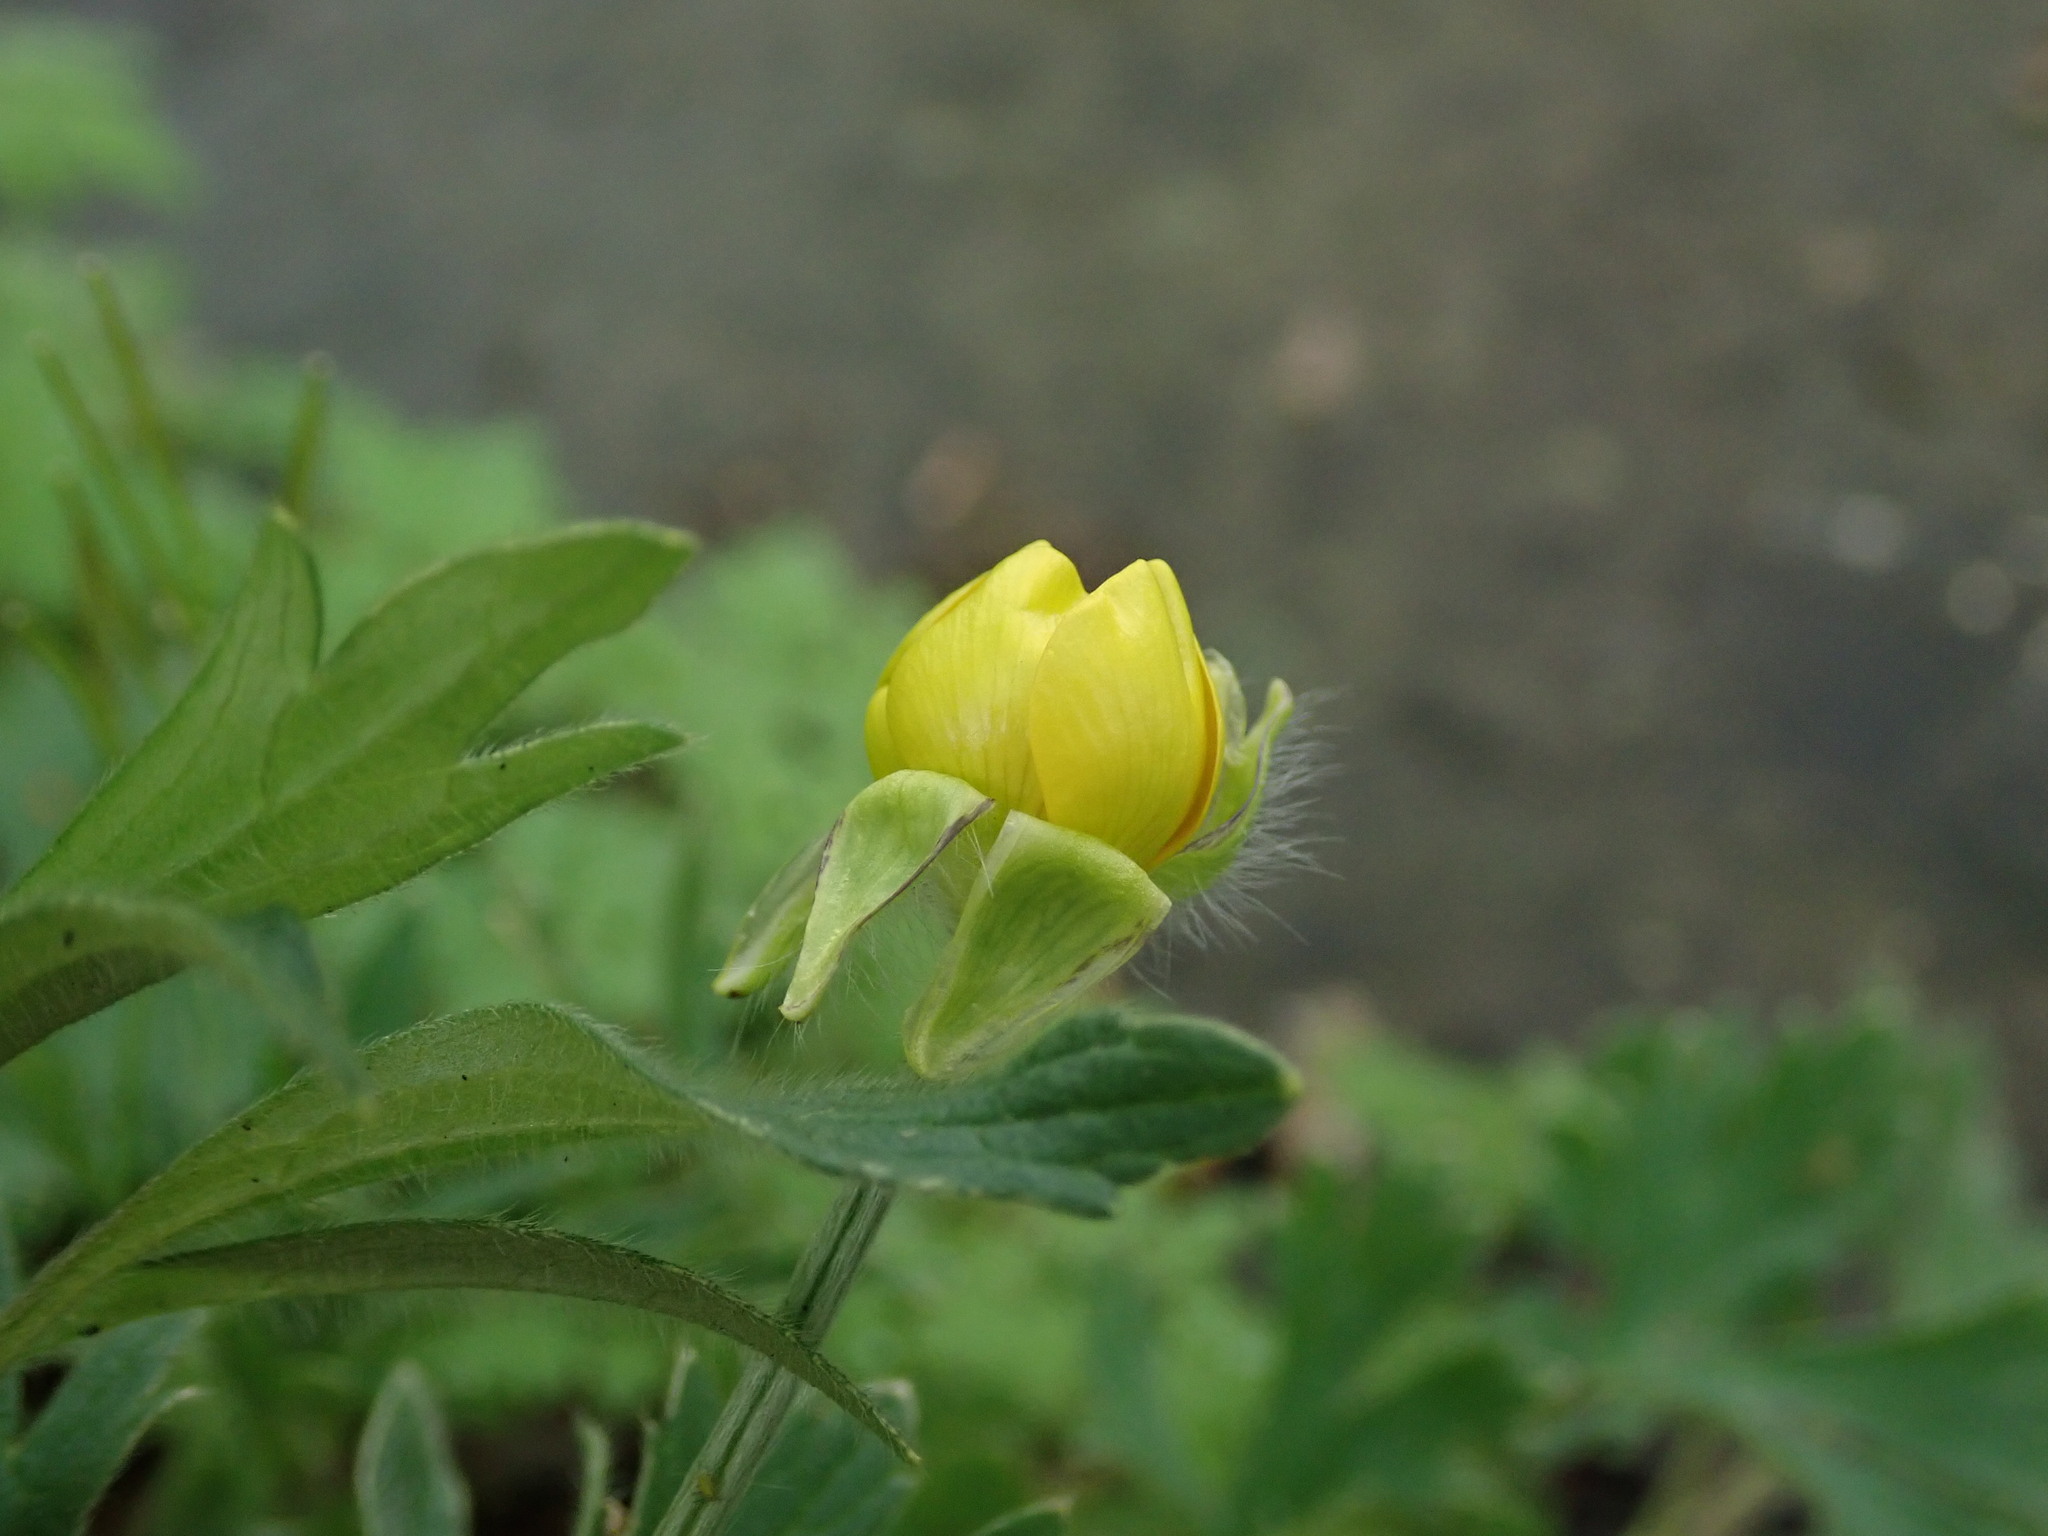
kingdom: Plantae
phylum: Tracheophyta
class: Magnoliopsida
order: Ranunculales
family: Ranunculaceae
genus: Ranunculus
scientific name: Ranunculus bulbosus
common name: Bulbous buttercup
